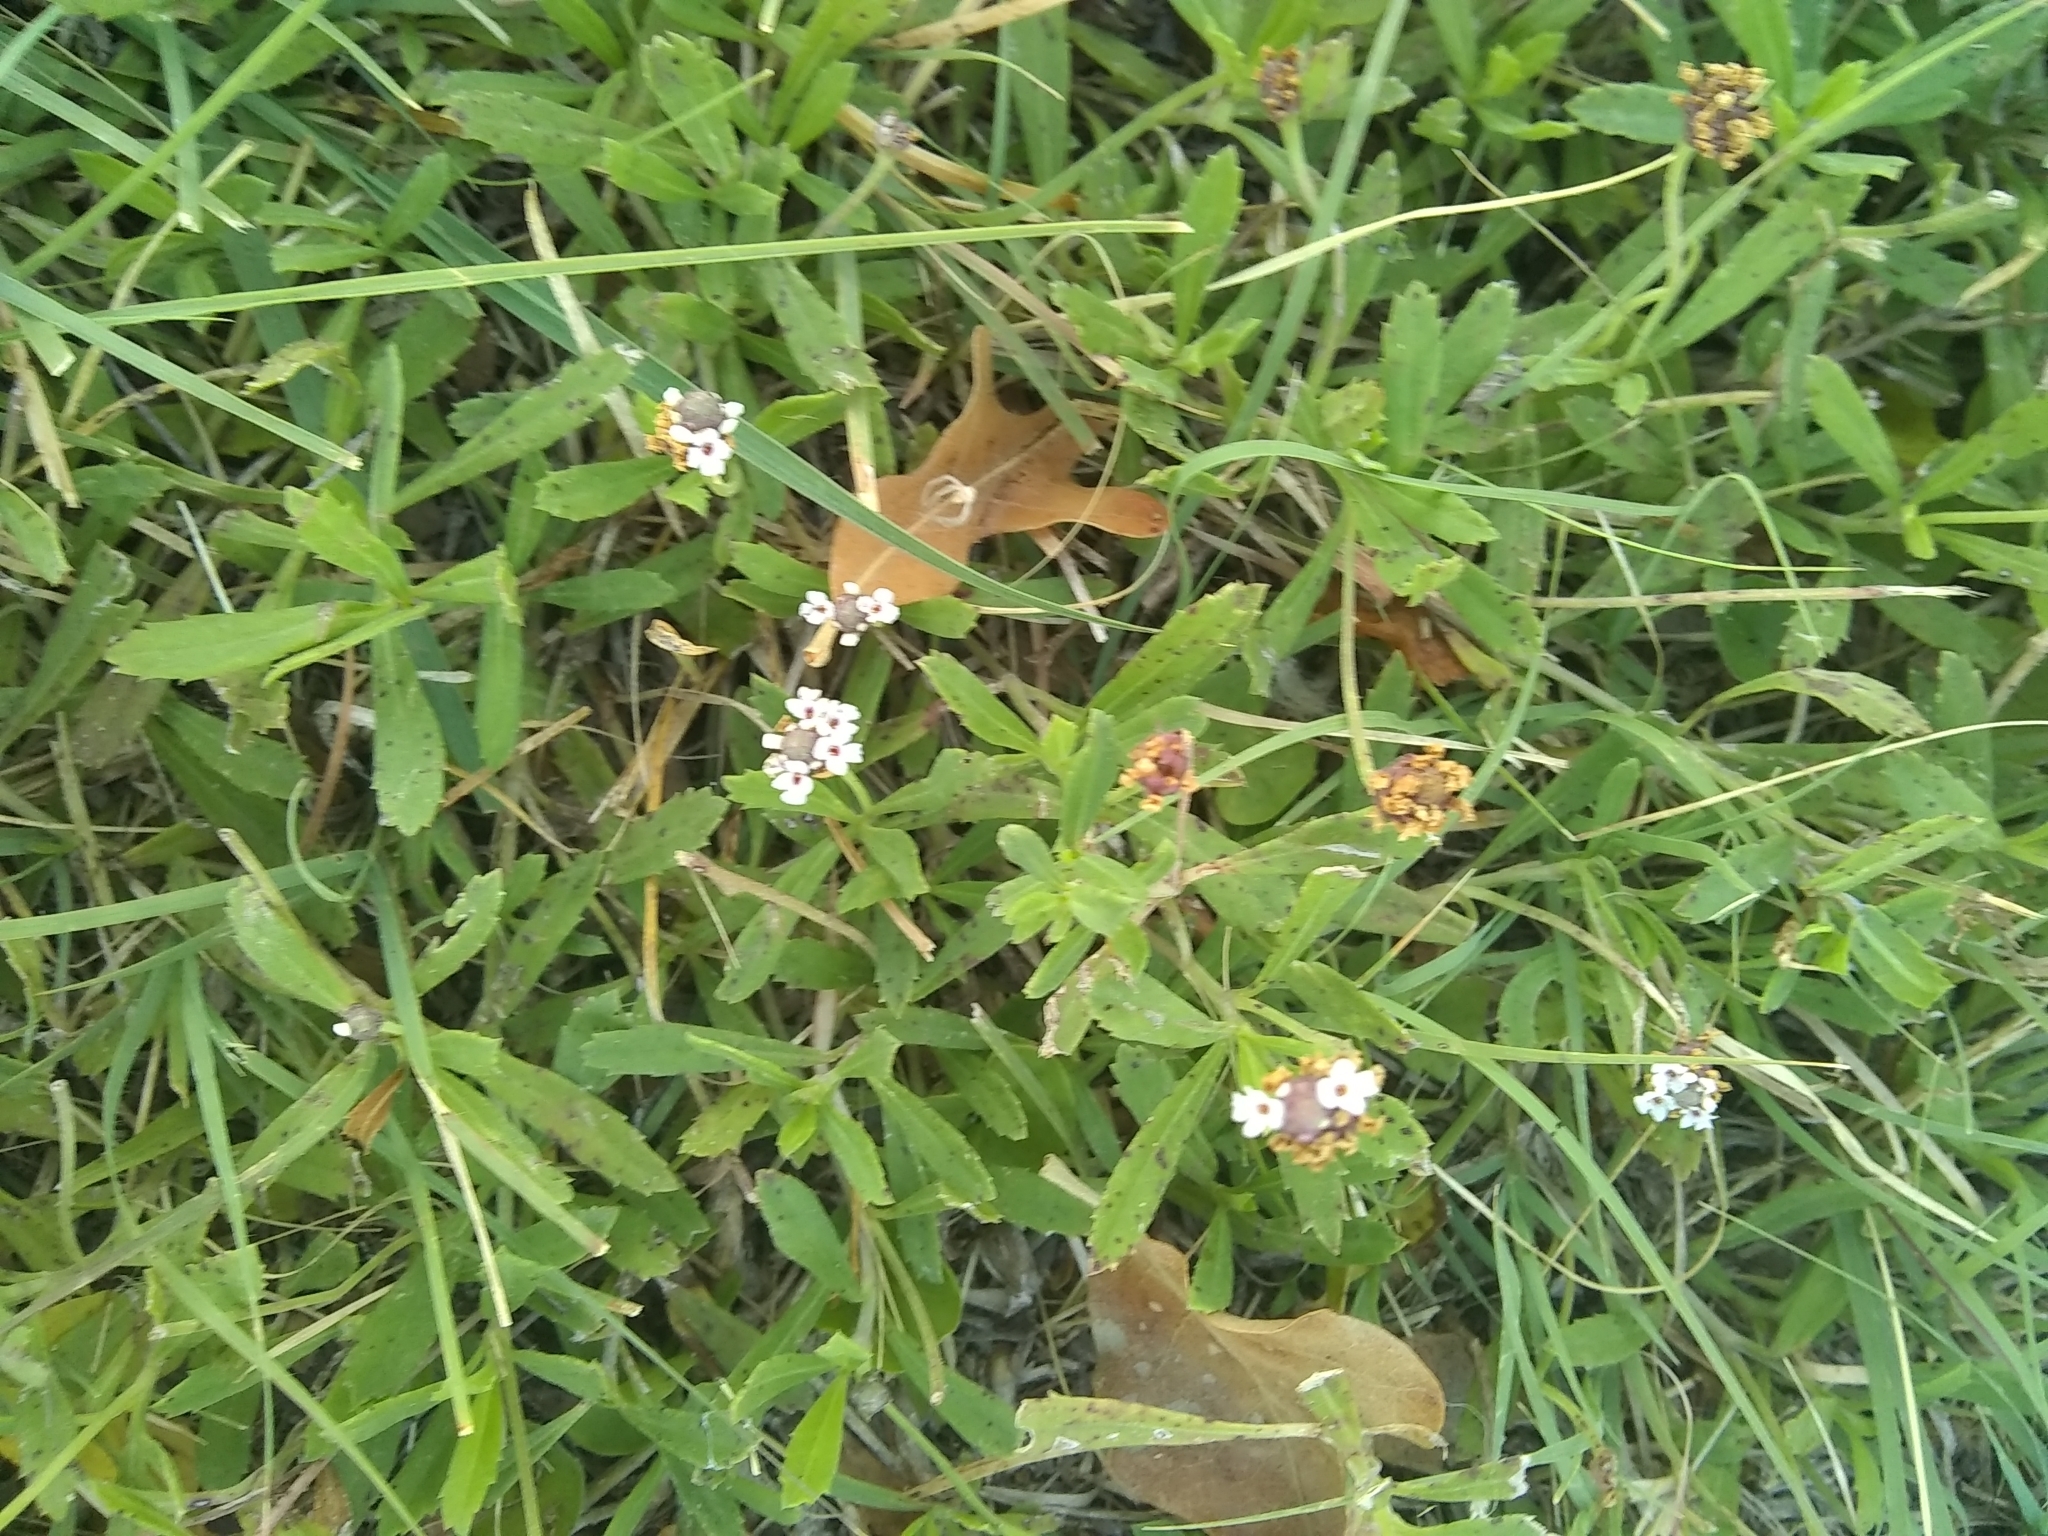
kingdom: Plantae
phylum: Tracheophyta
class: Magnoliopsida
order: Lamiales
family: Verbenaceae
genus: Phyla
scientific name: Phyla nodiflora
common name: Frogfruit
